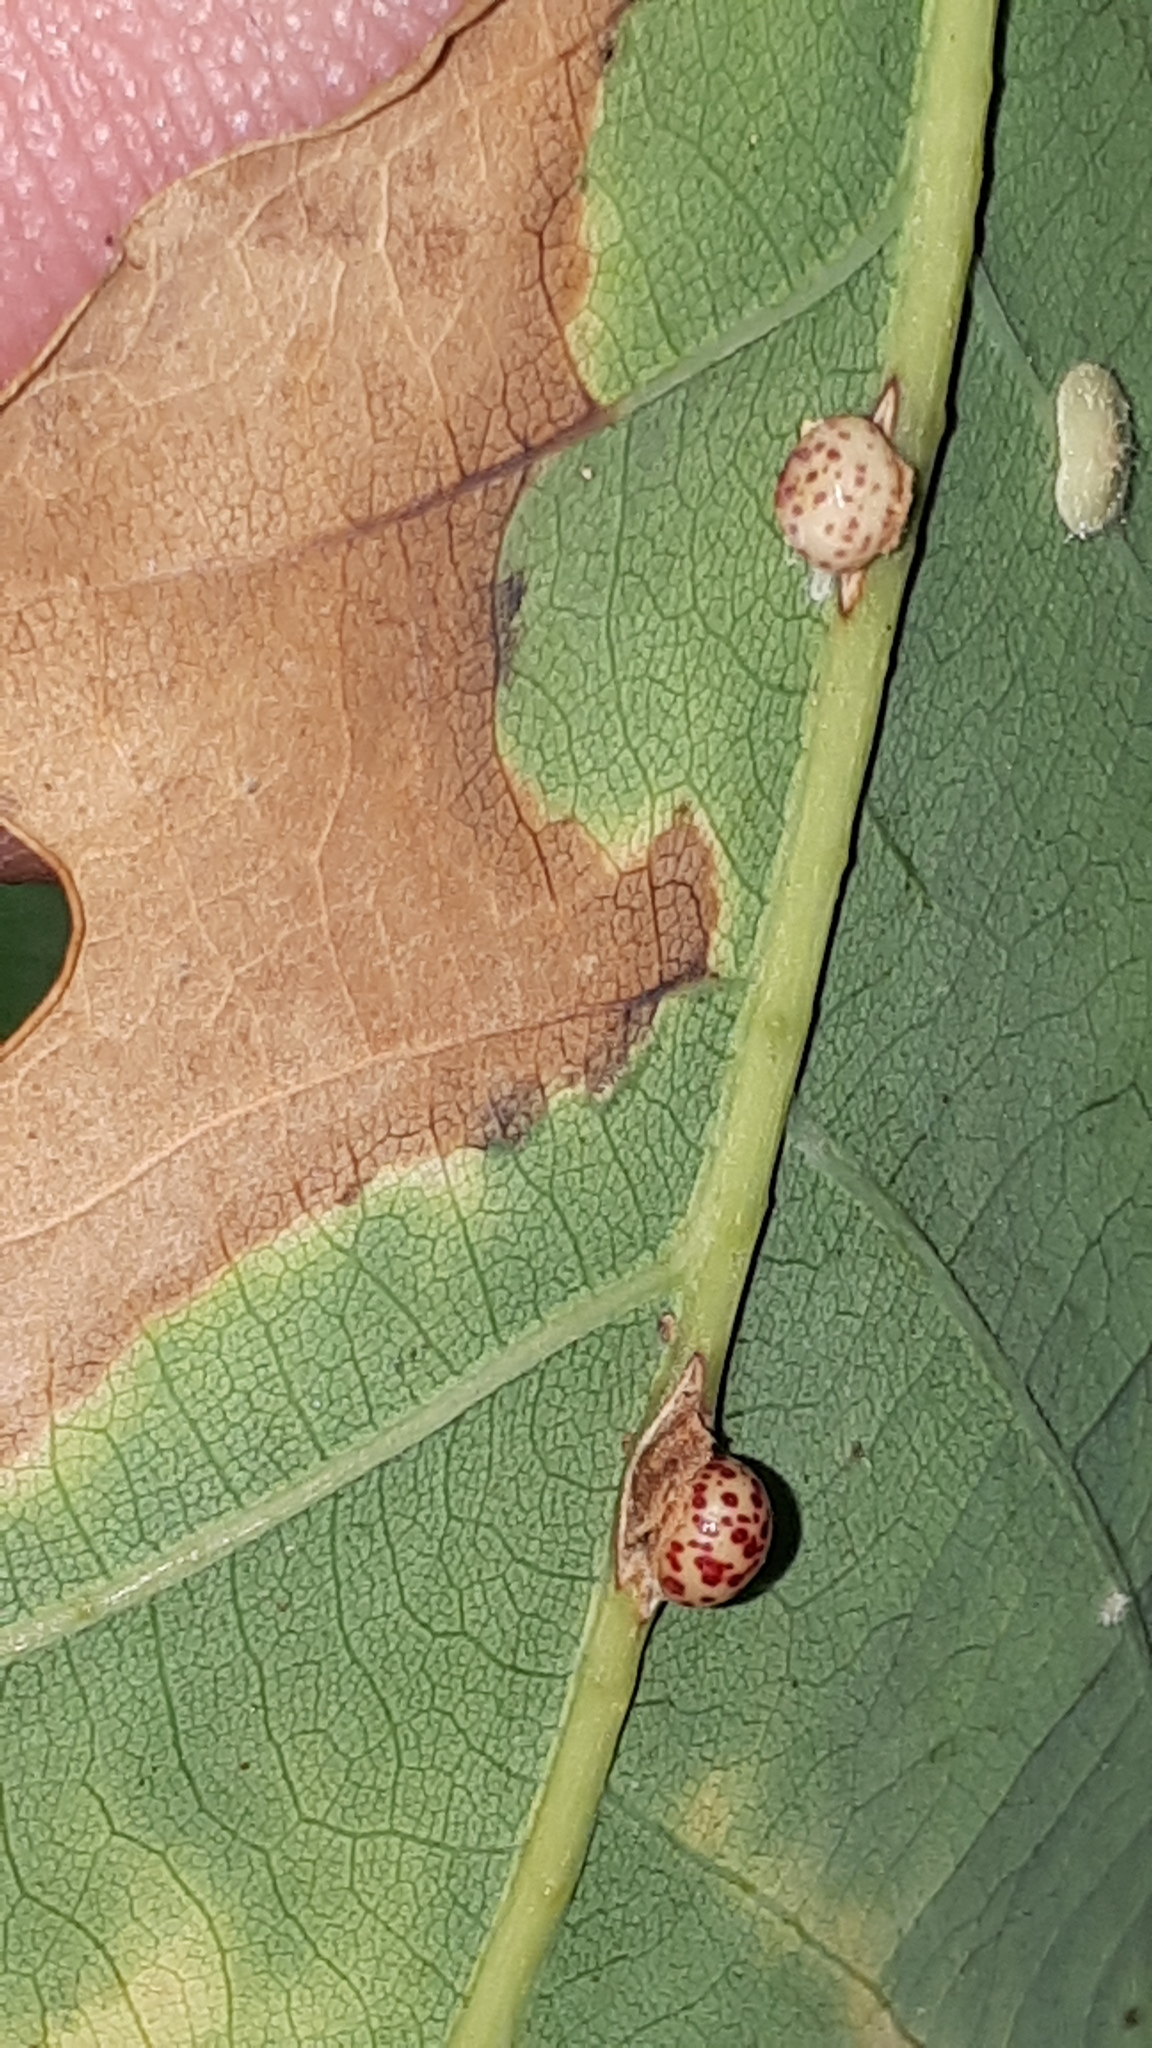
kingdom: Animalia
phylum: Arthropoda
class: Insecta
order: Hymenoptera
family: Cynipidae
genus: Neuroterus
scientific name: Neuroterus anthracinus
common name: Oyster gall
